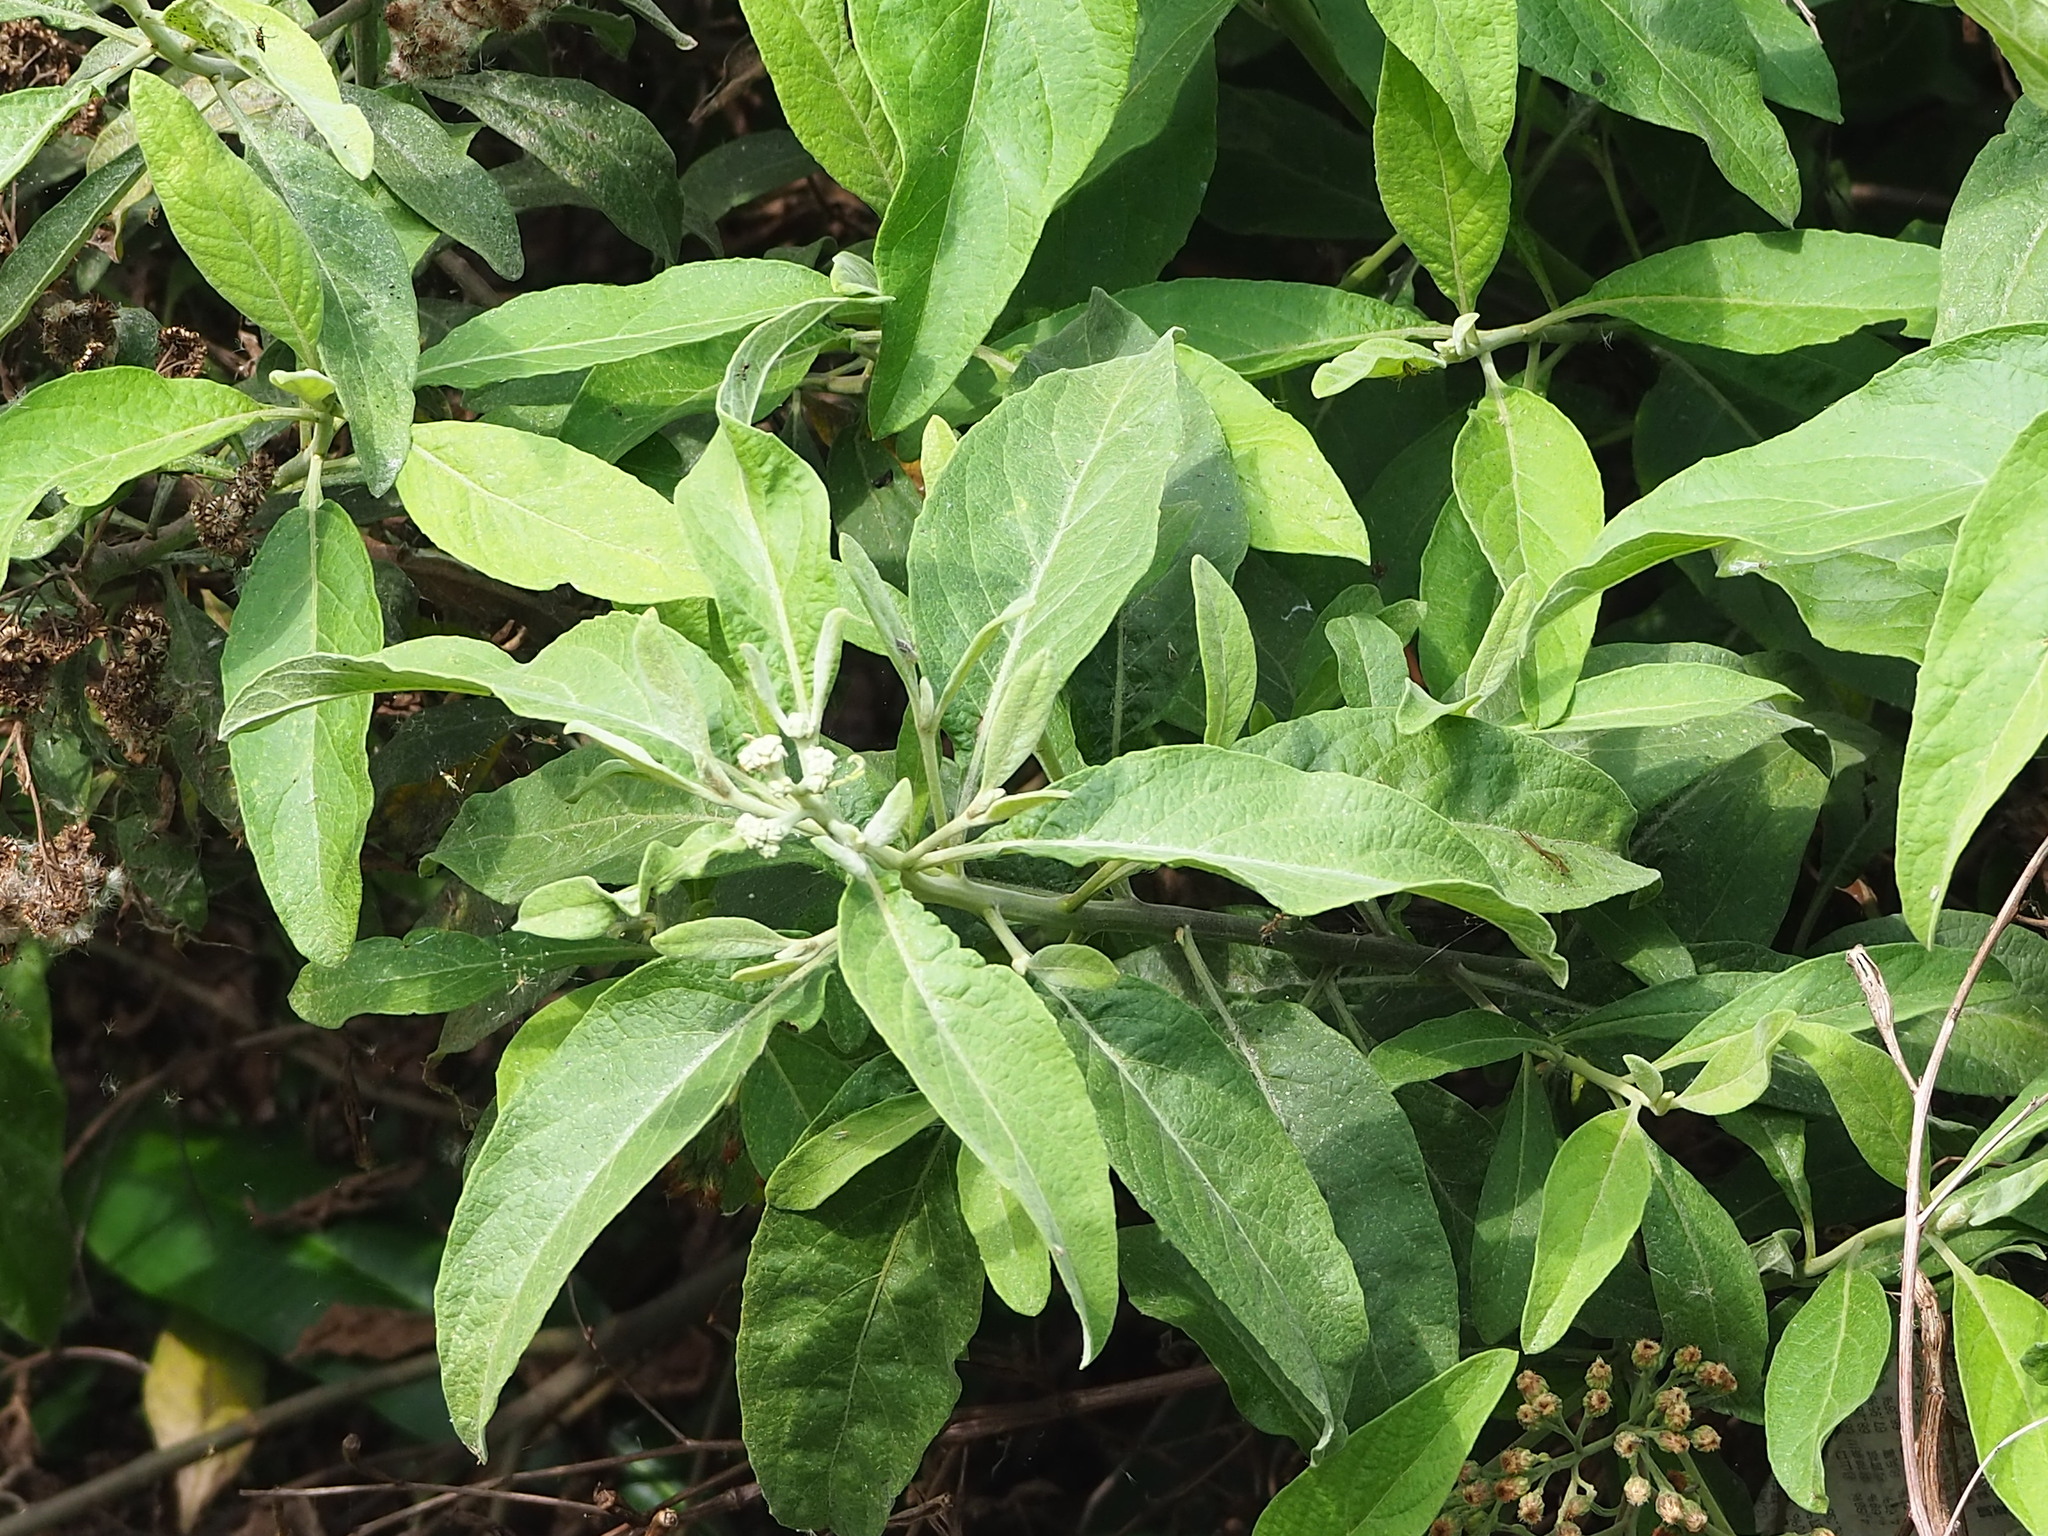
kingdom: Plantae
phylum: Tracheophyta
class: Magnoliopsida
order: Asterales
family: Asteraceae
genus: Pluchea
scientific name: Pluchea carolinensis
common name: Marsh fleabane
